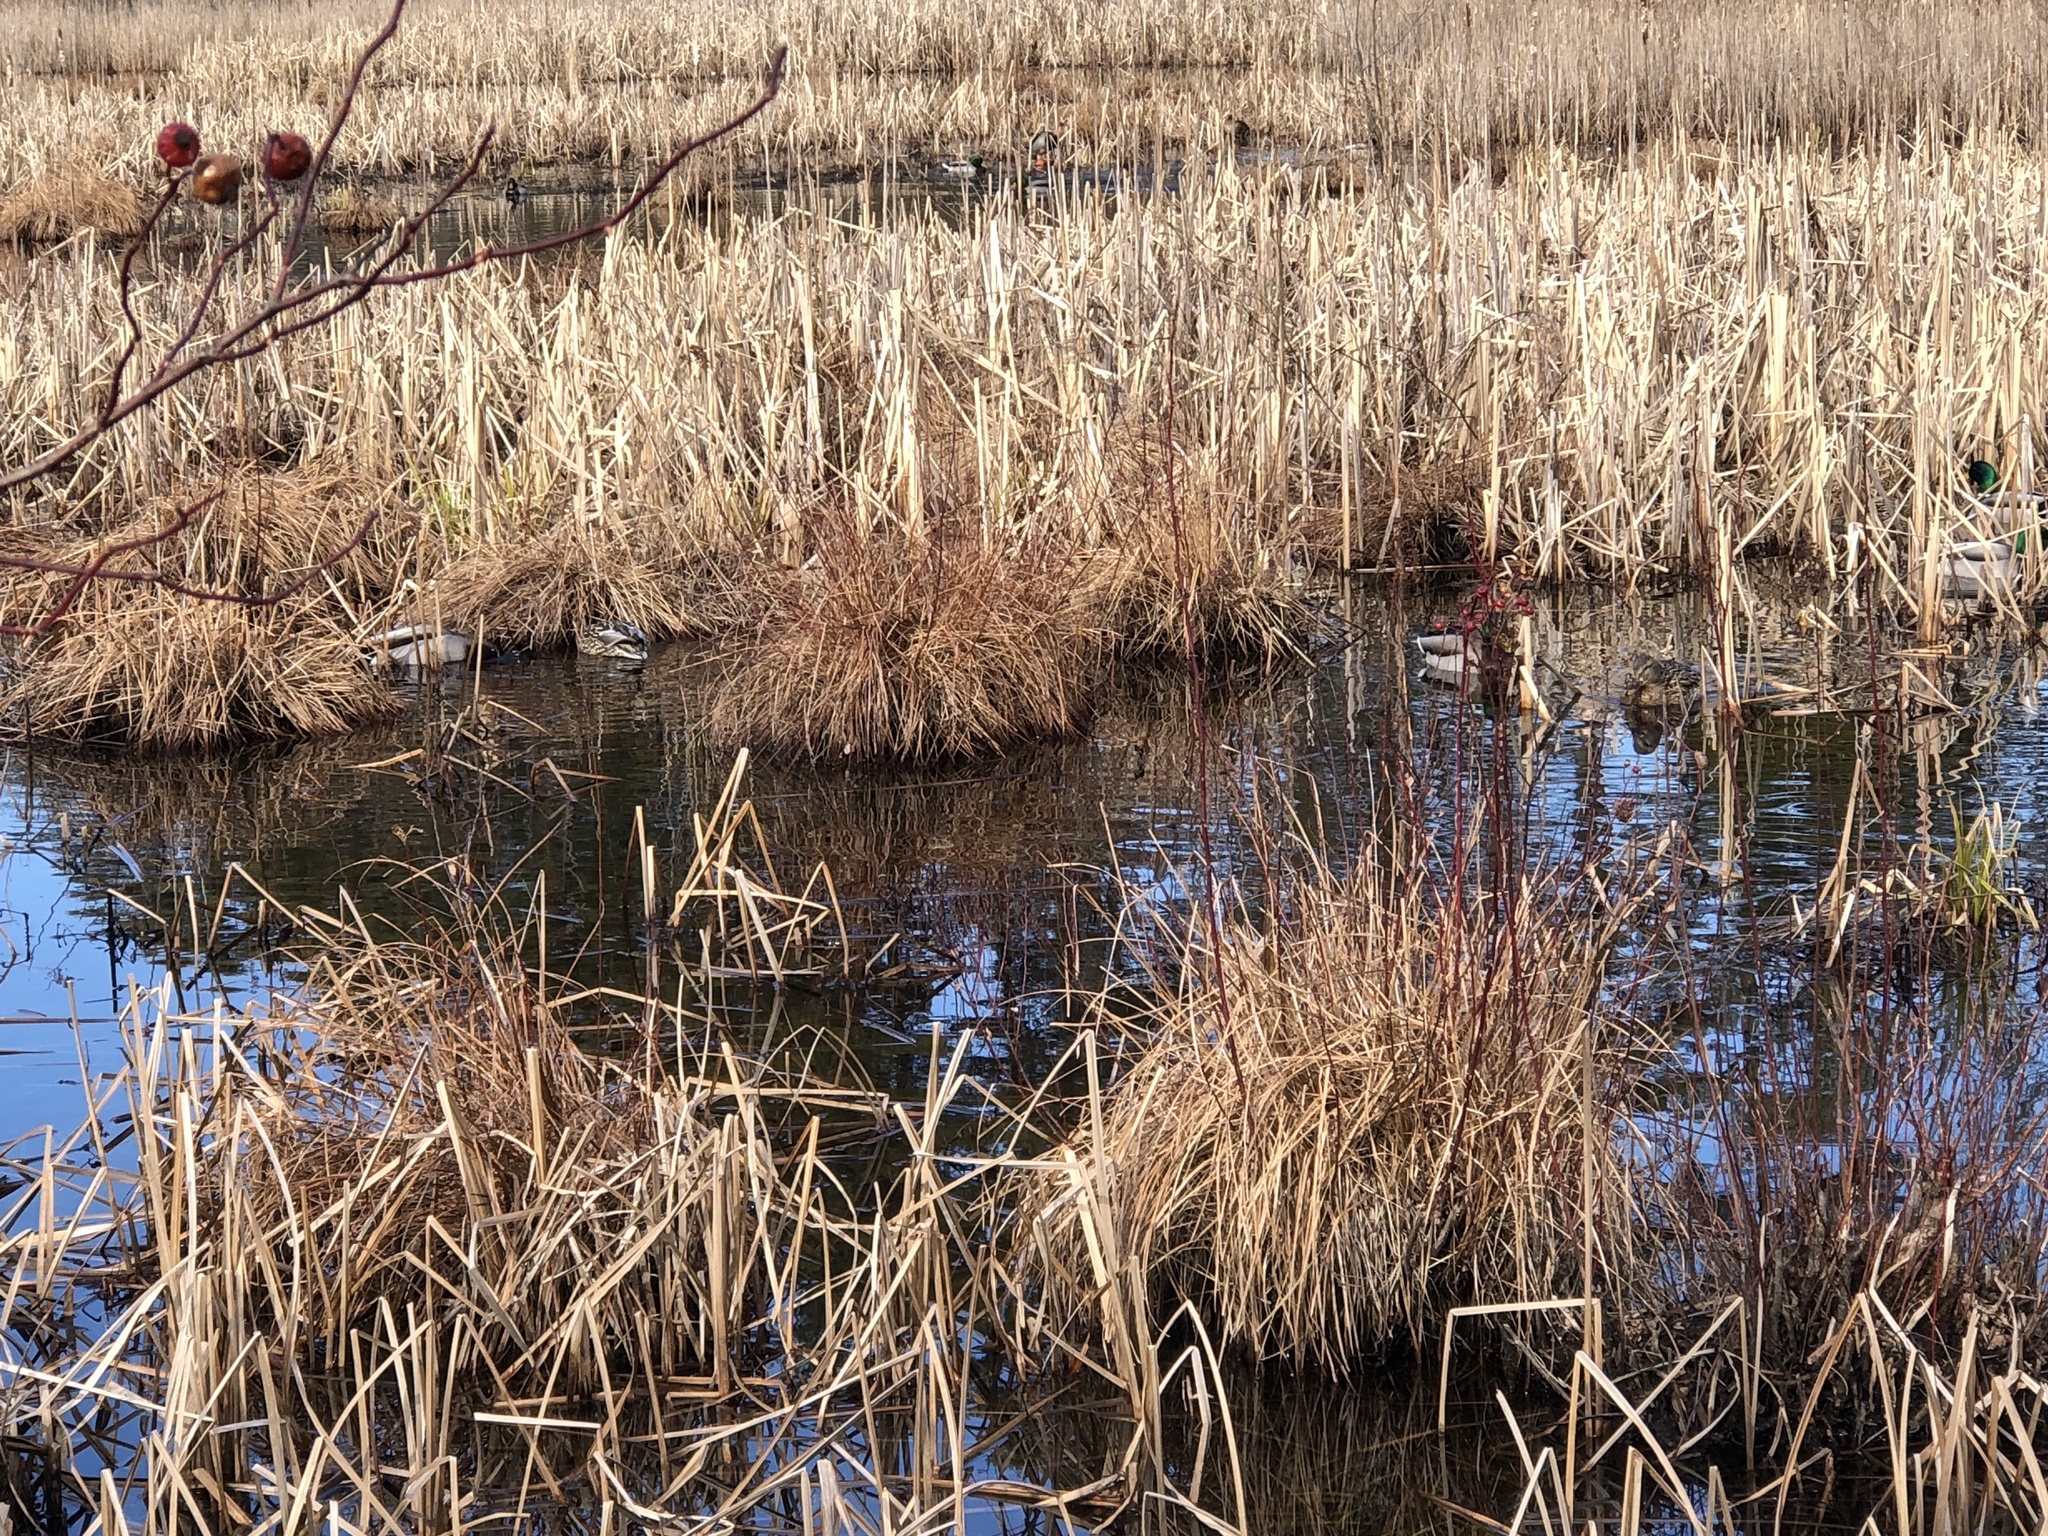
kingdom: Animalia
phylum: Chordata
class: Aves
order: Anseriformes
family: Anatidae
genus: Anas
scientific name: Anas platyrhynchos
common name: Mallard
